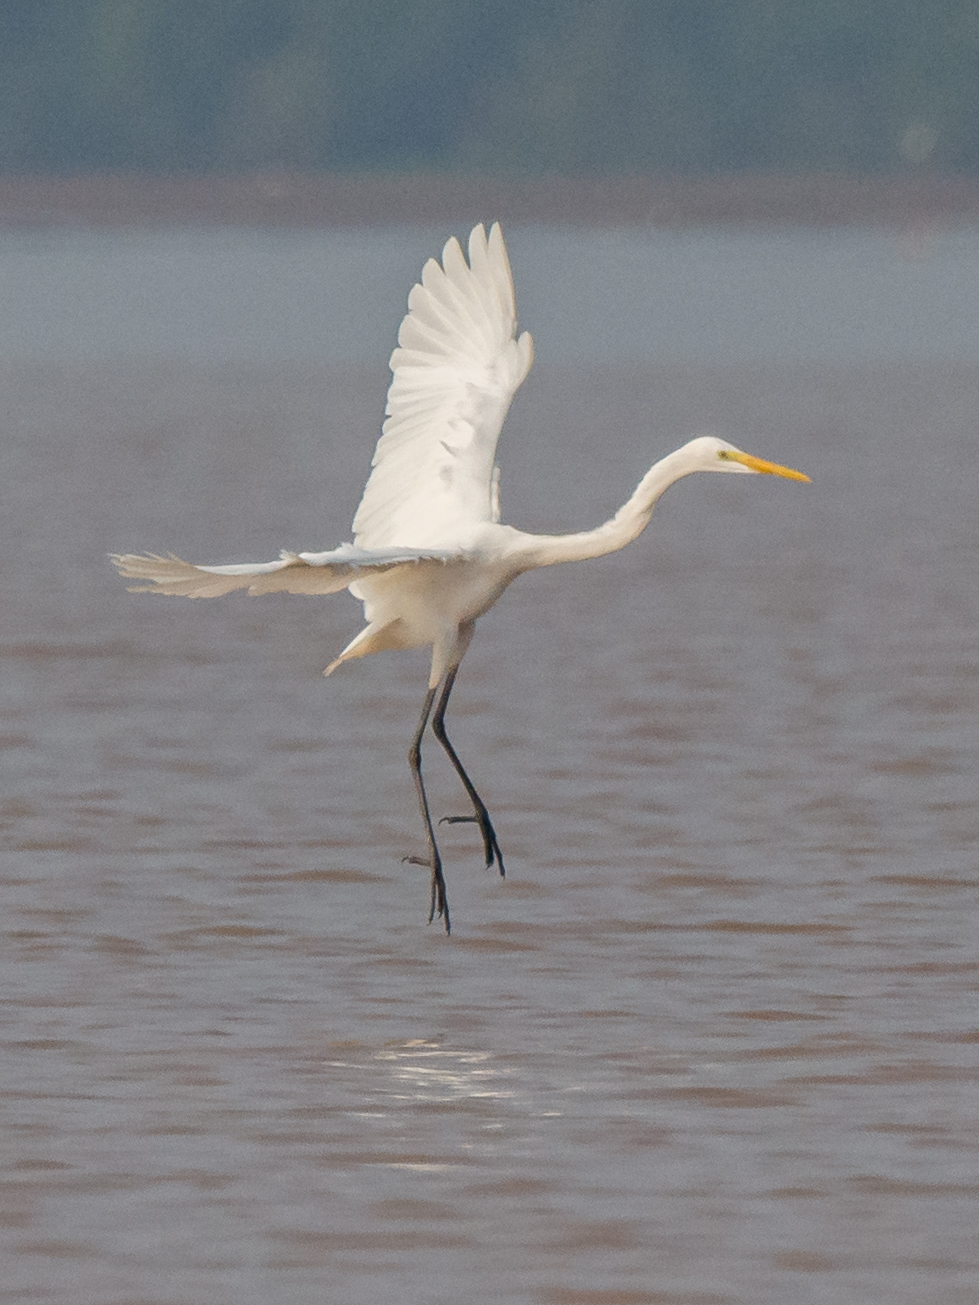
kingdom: Animalia
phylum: Chordata
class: Aves
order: Pelecaniformes
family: Ardeidae
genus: Ardea
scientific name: Ardea alba
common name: Great egret
